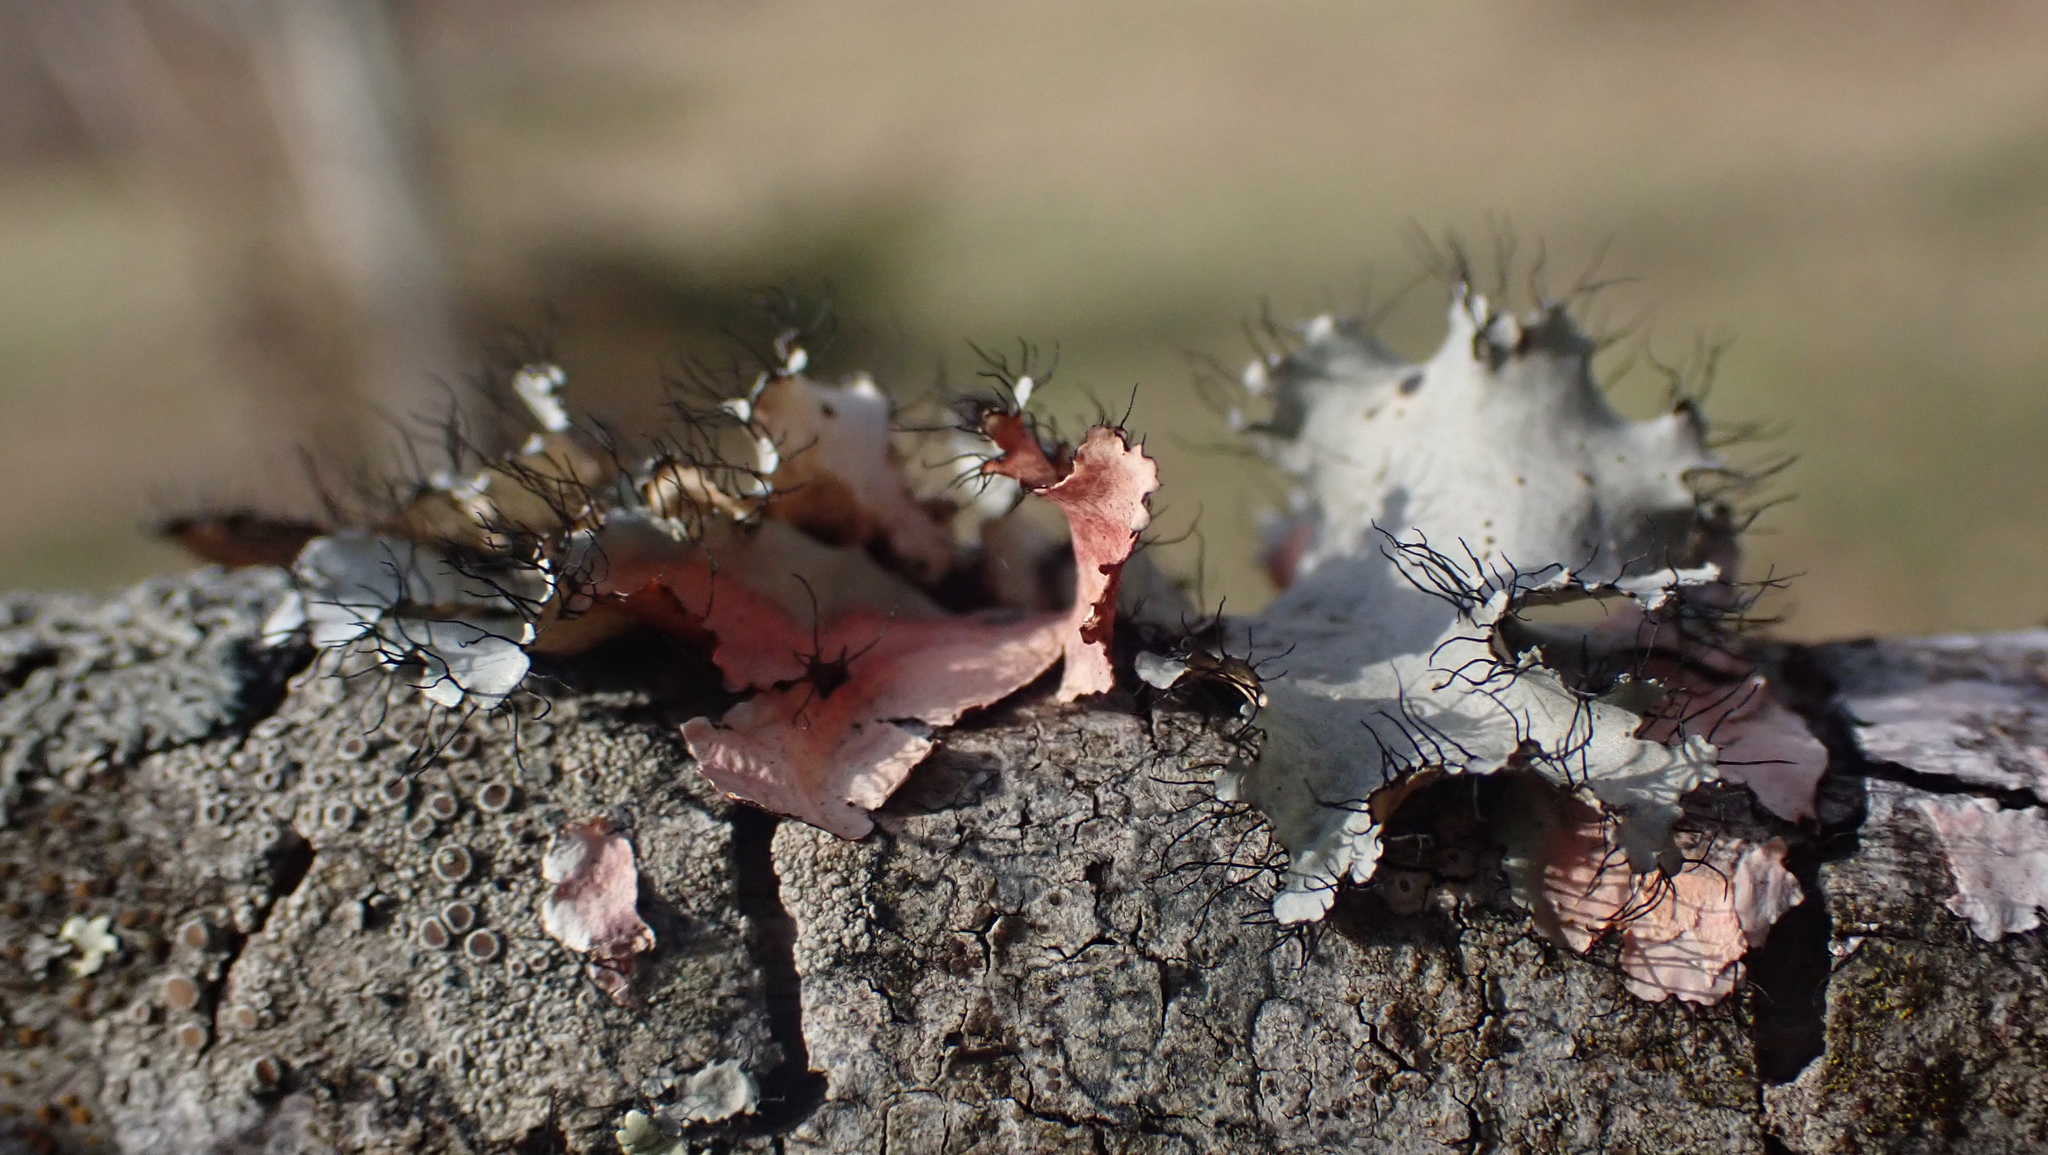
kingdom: Fungi
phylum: Ascomycota
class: Lecanoromycetes
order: Lecanorales
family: Parmeliaceae
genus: Parmotrema
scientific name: Parmotrema hypotropum
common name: Powdered ruffle lichen
